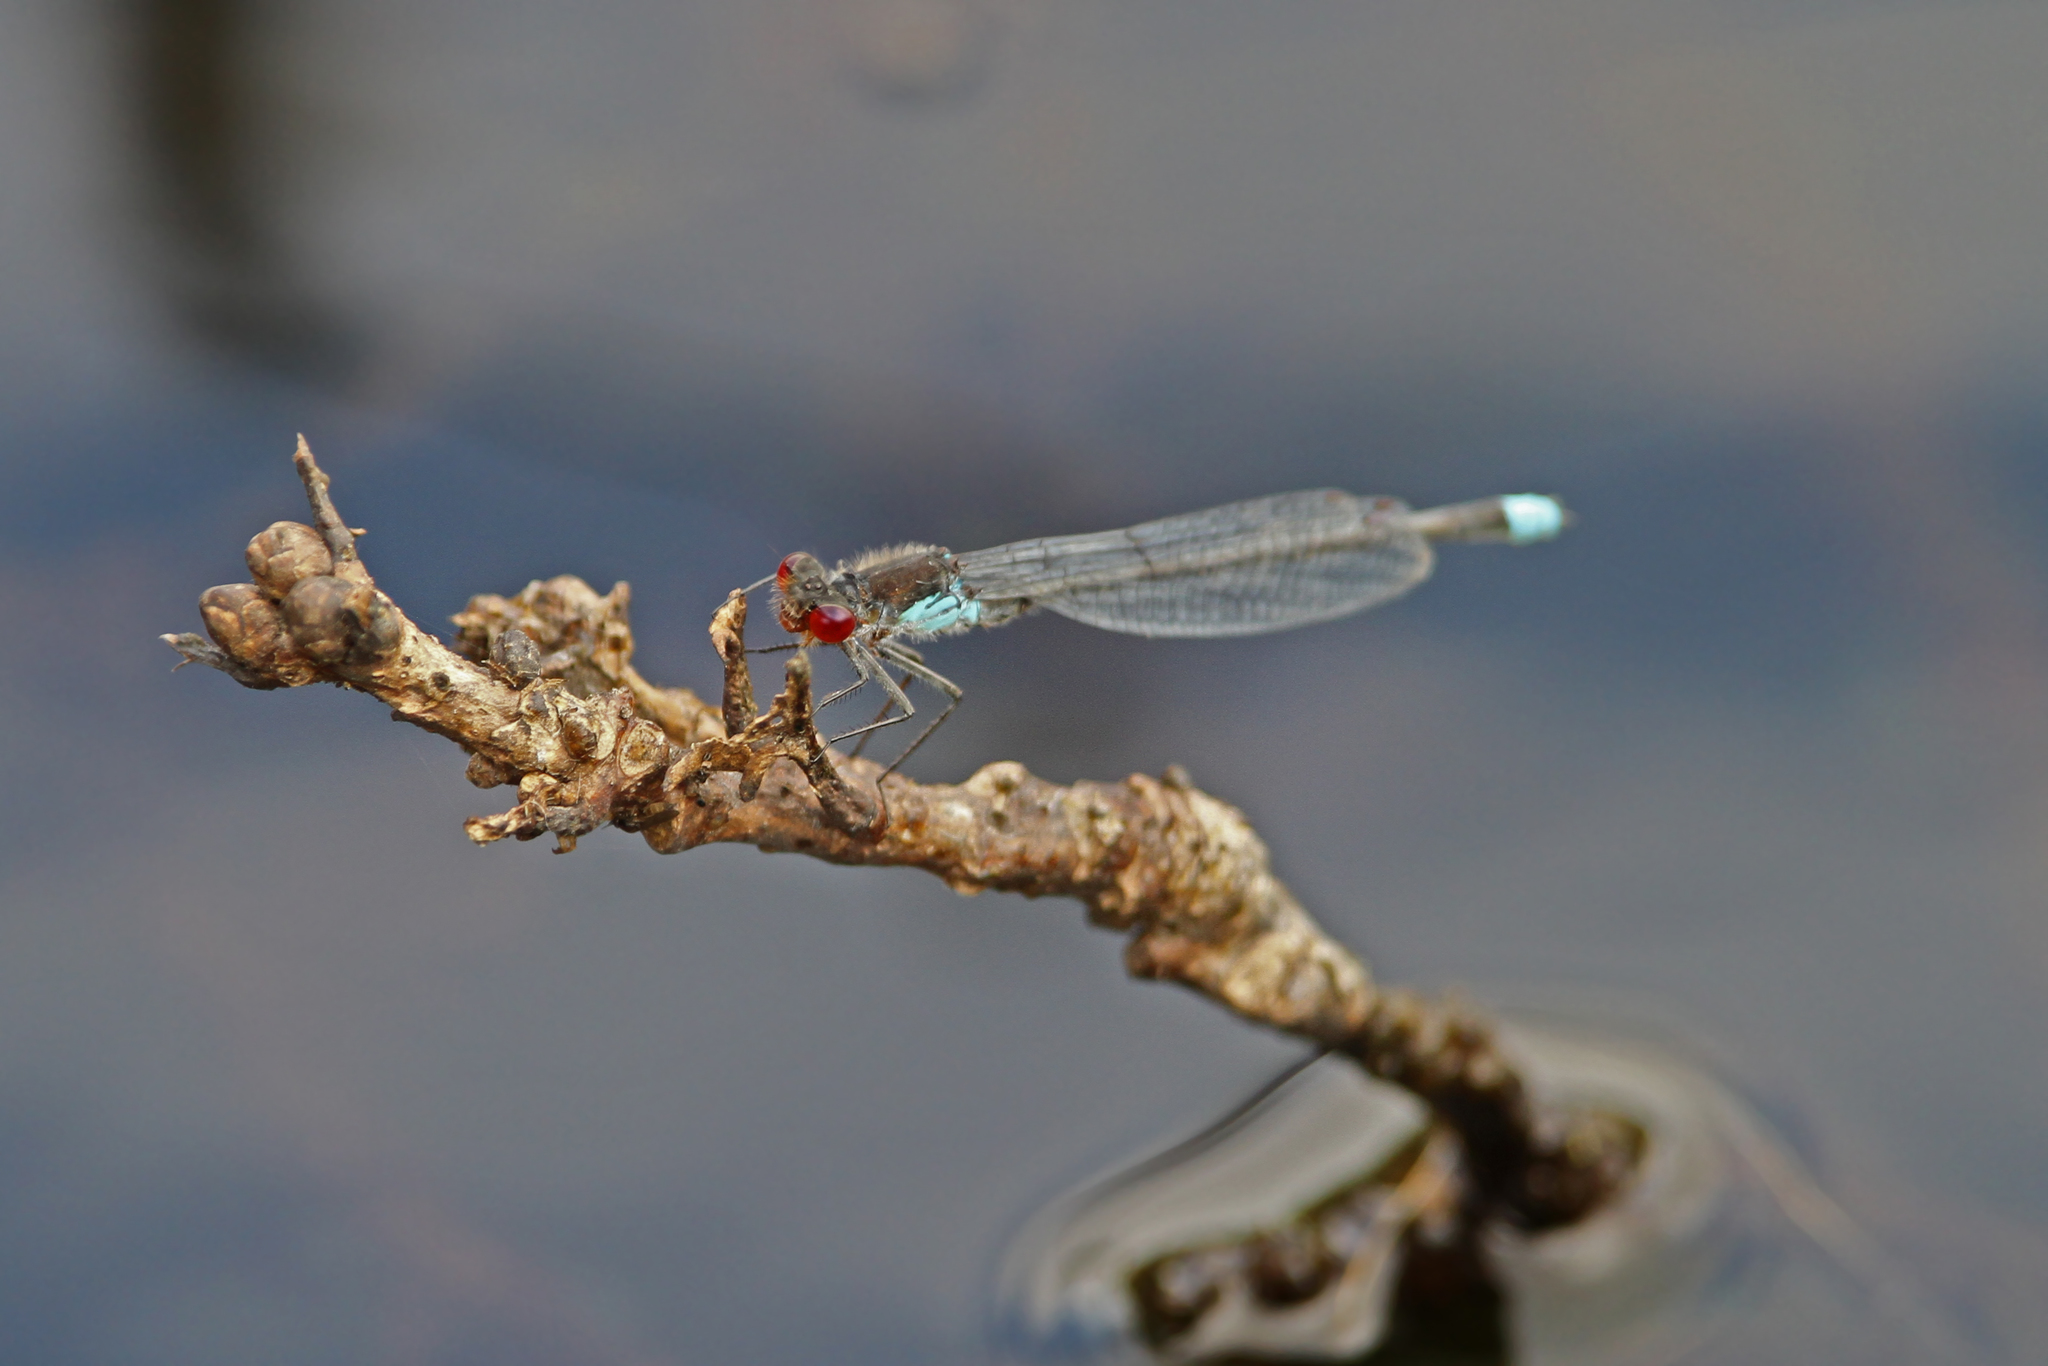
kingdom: Animalia
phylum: Arthropoda
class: Insecta
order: Odonata
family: Coenagrionidae
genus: Erythromma
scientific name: Erythromma najas
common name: Red-eyed damselfly
